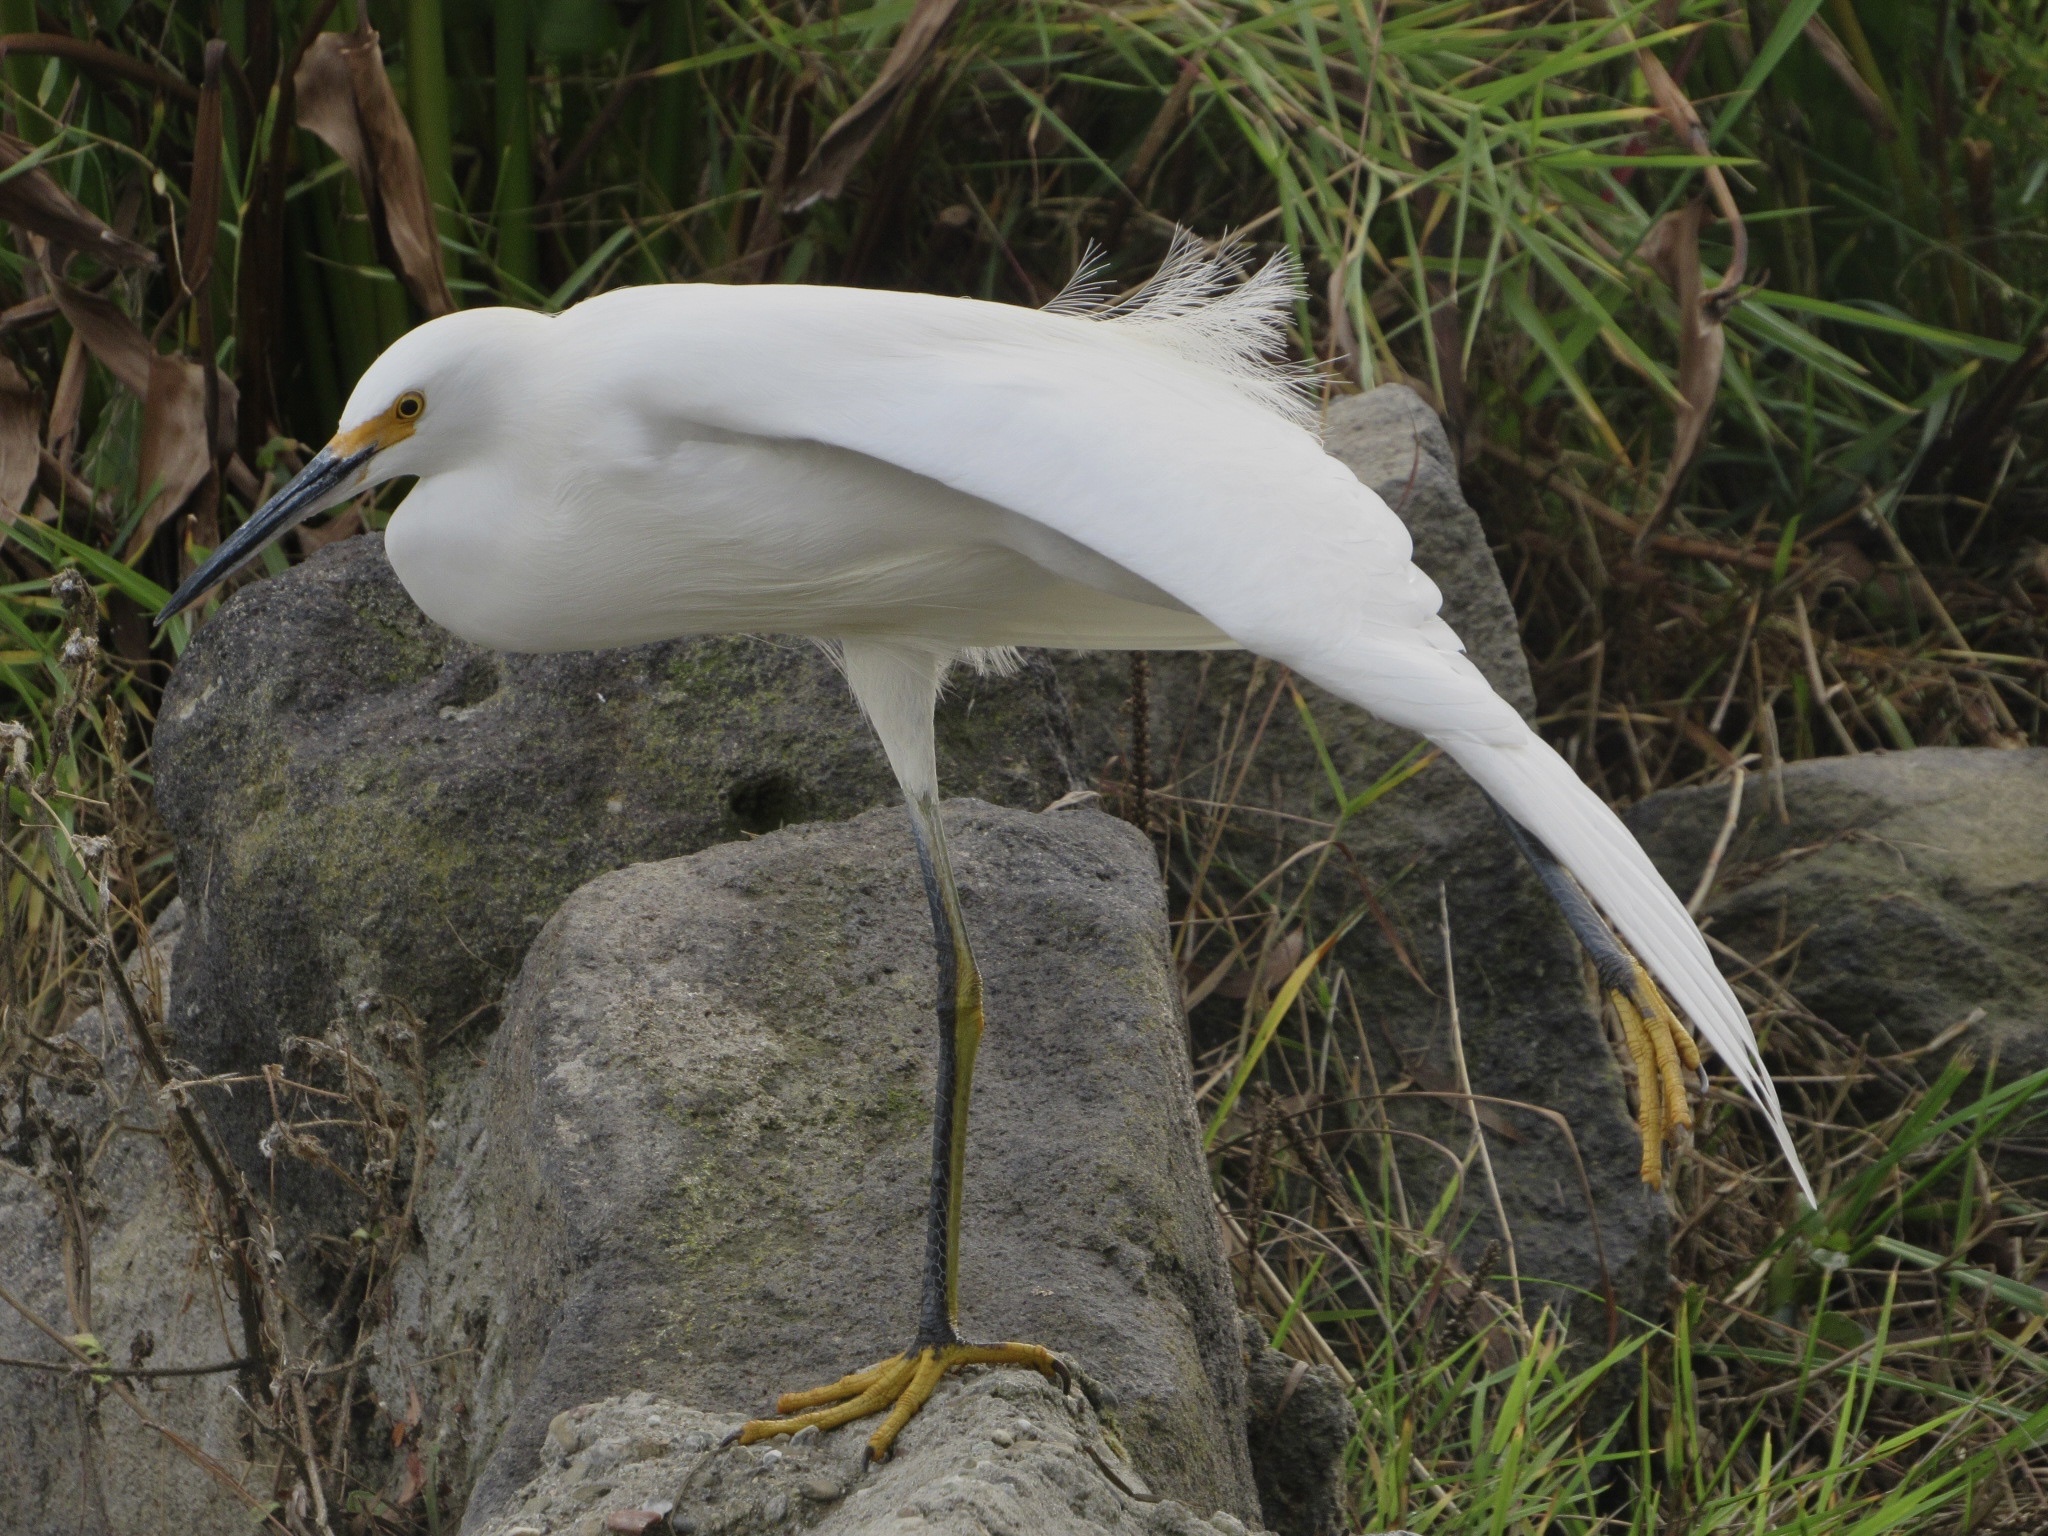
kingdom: Animalia
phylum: Chordata
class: Aves
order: Pelecaniformes
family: Ardeidae
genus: Egretta
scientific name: Egretta thula
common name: Snowy egret
